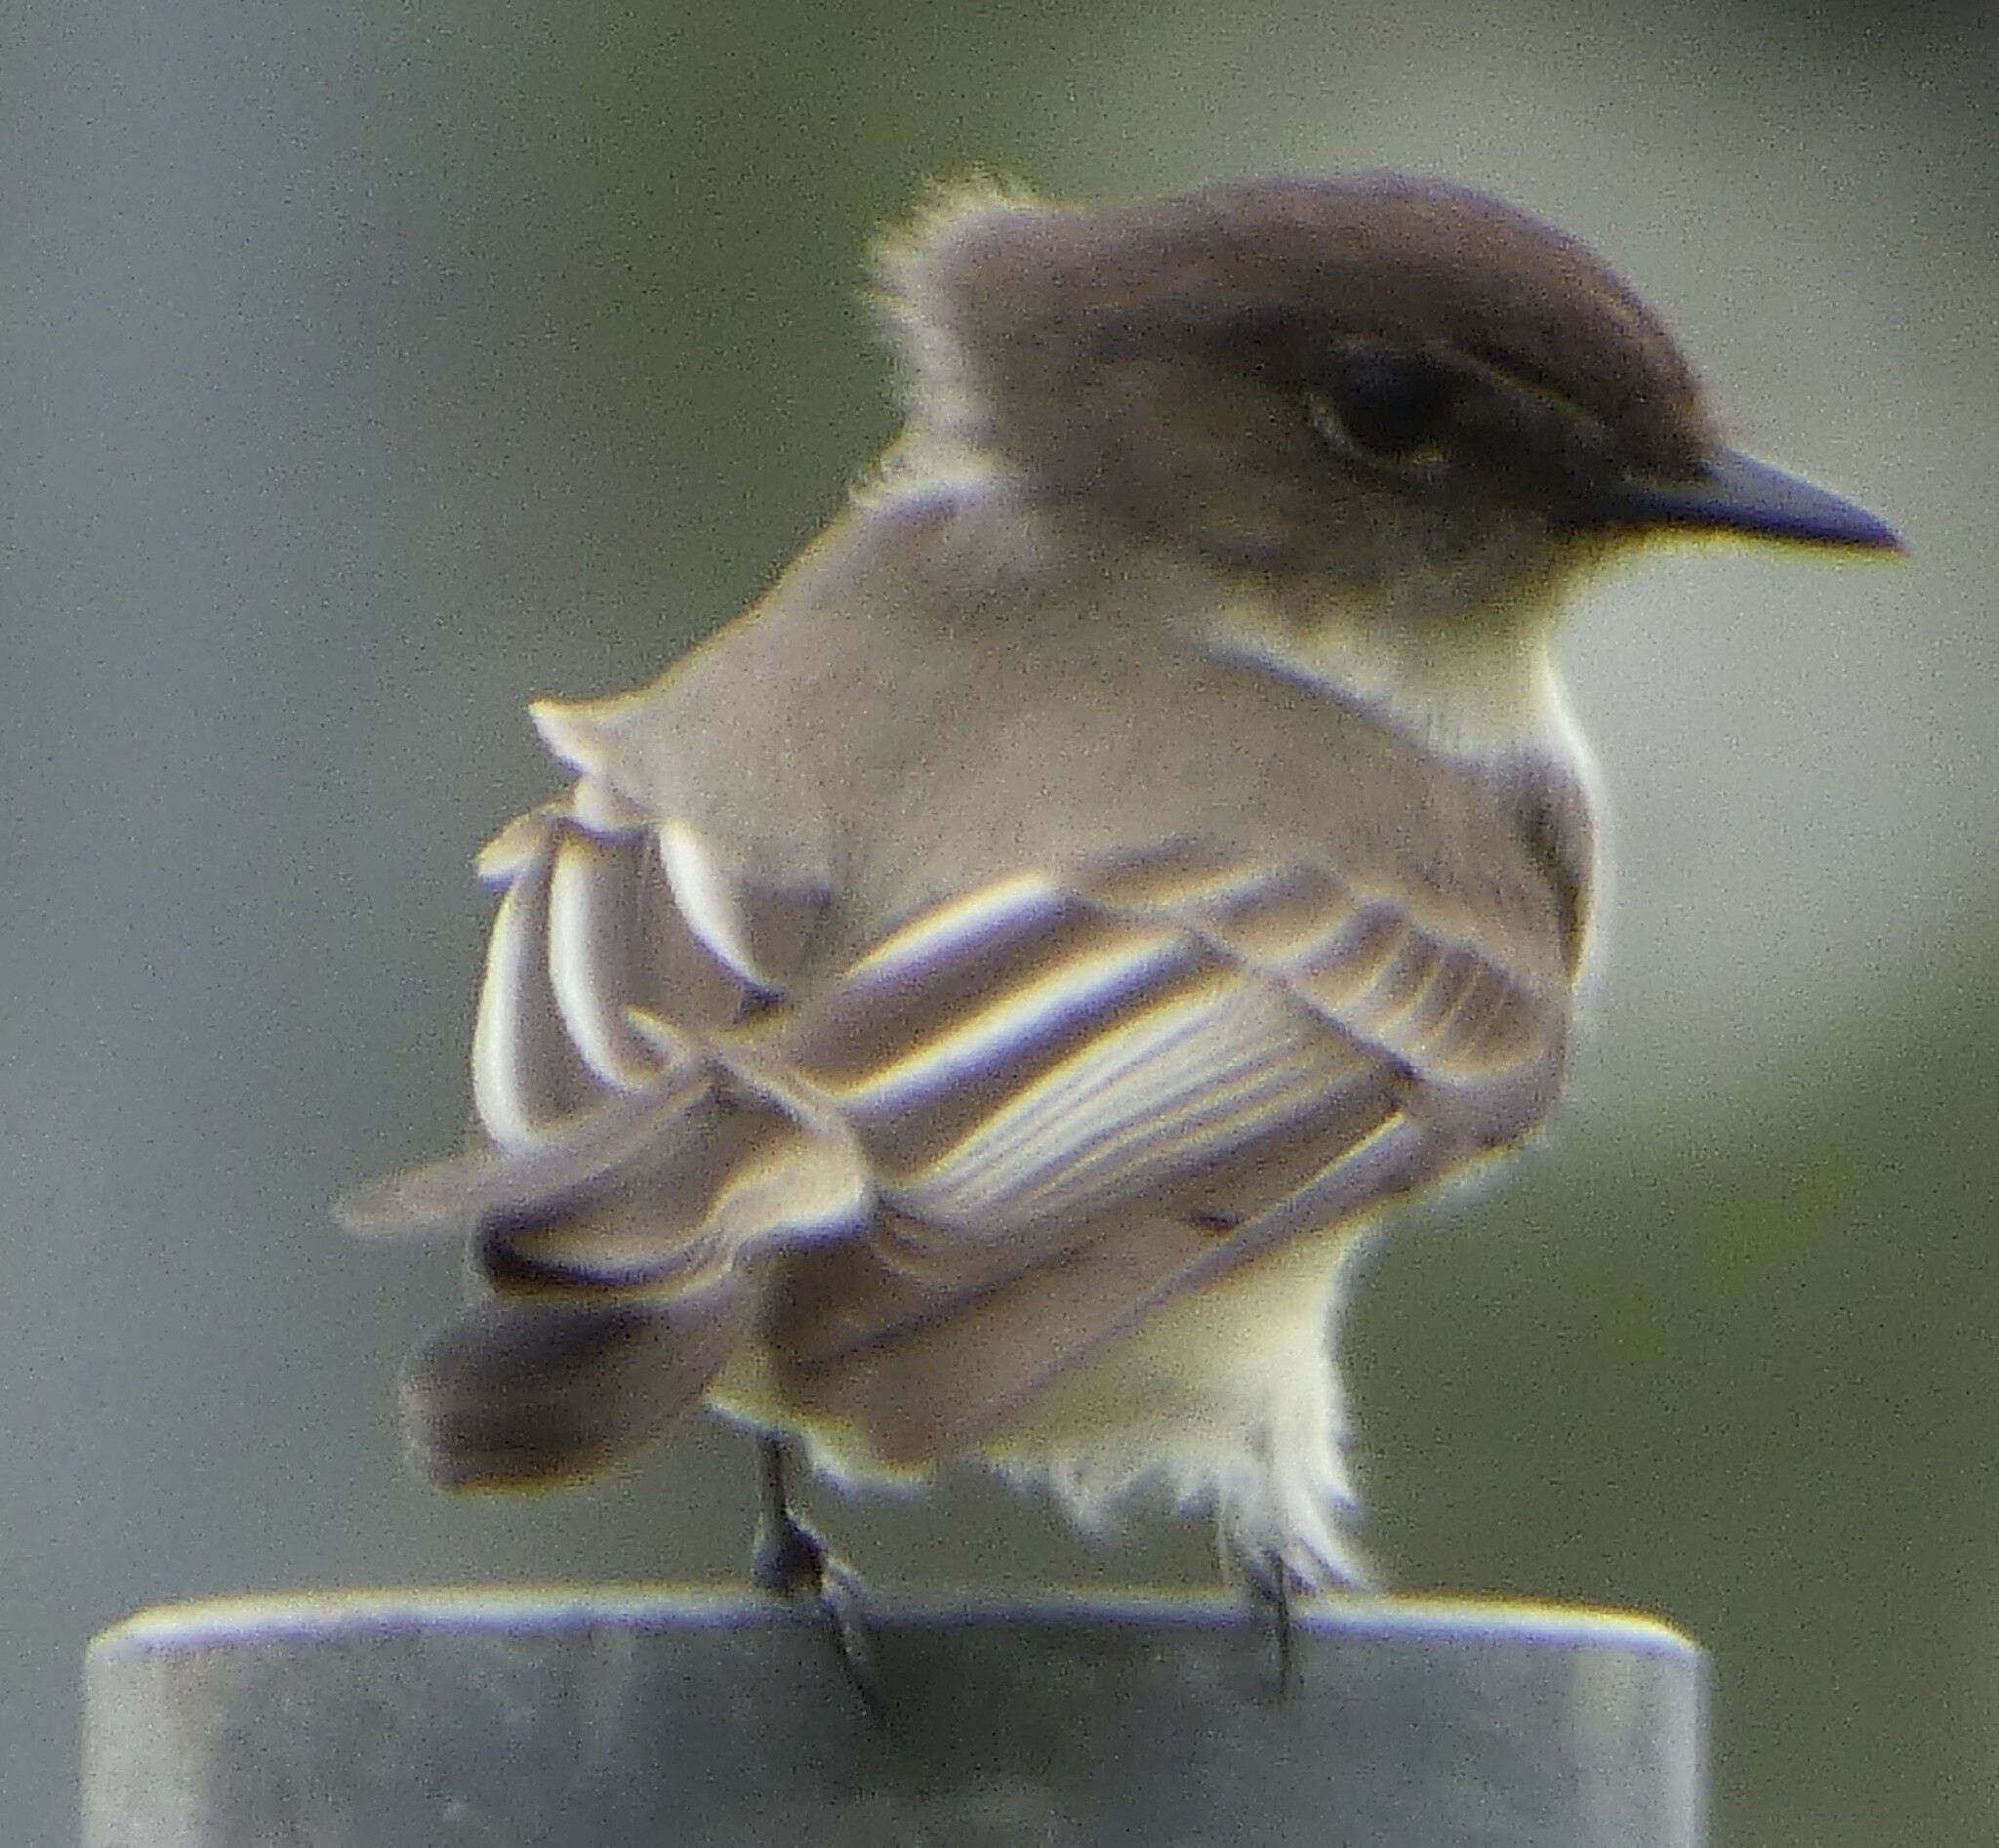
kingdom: Animalia
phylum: Chordata
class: Aves
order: Passeriformes
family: Tyrannidae
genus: Sayornis
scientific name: Sayornis phoebe
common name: Eastern phoebe
